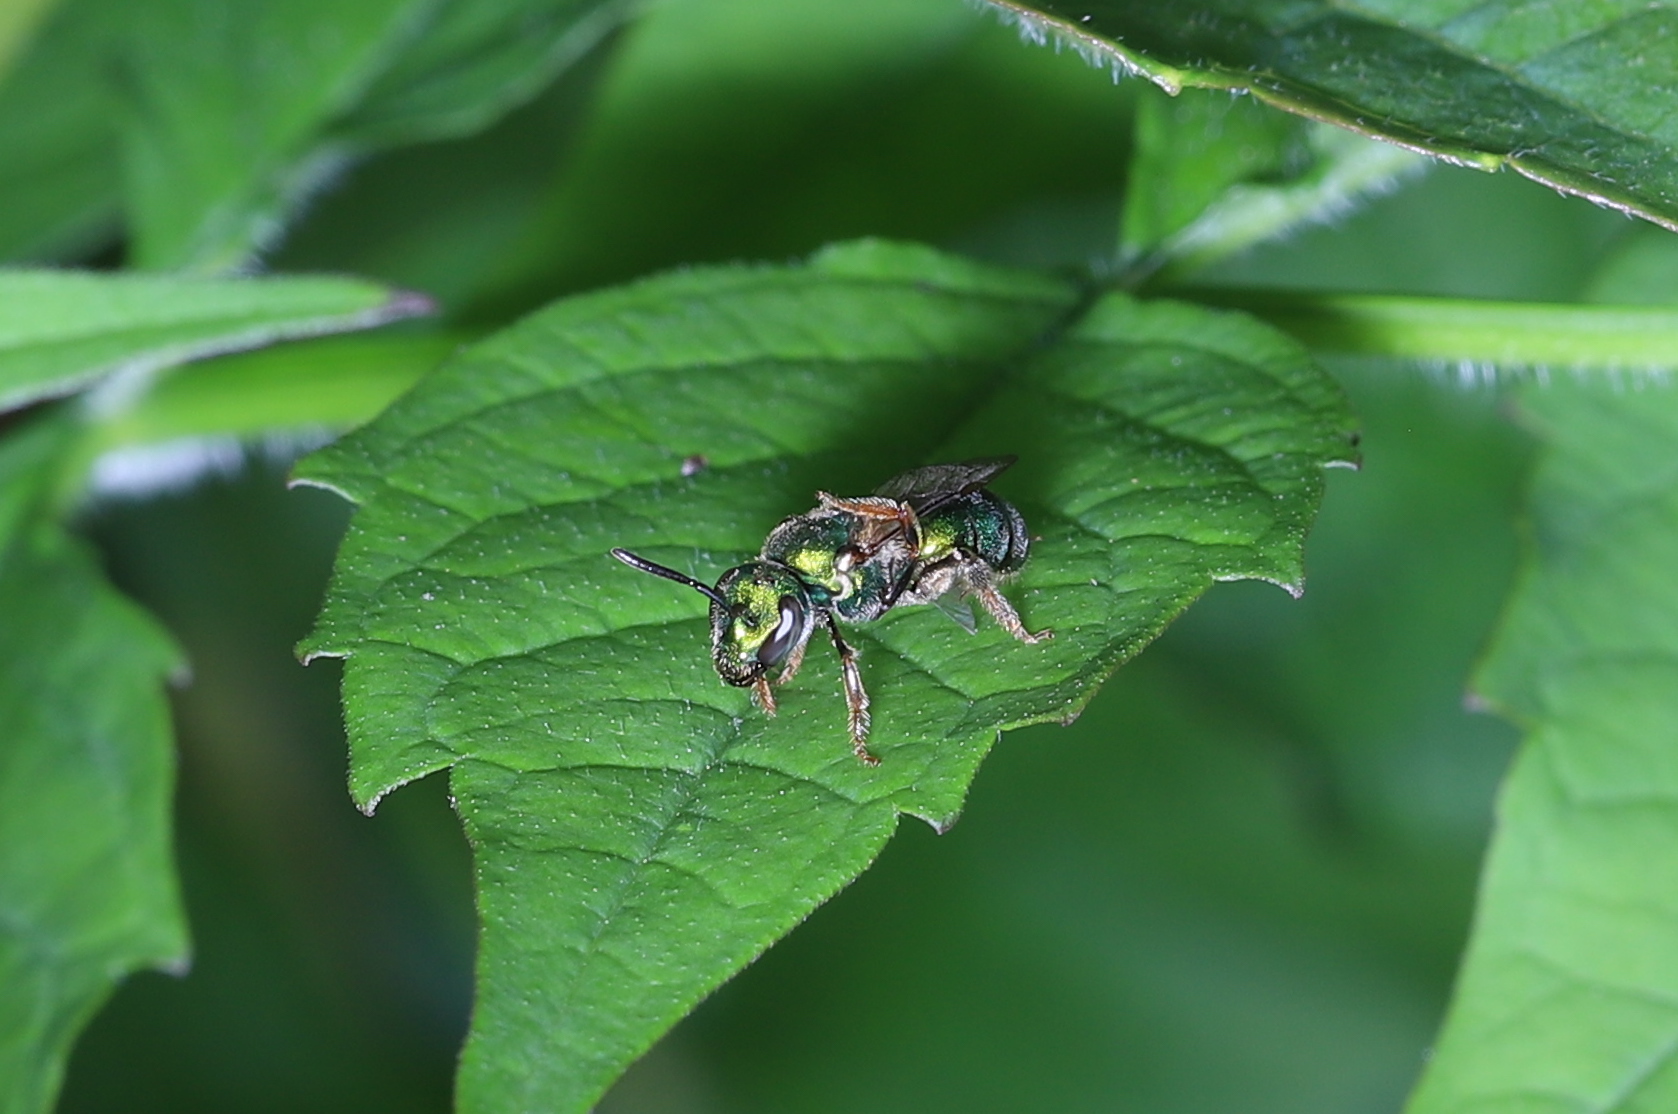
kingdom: Animalia
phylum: Arthropoda
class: Insecta
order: Hymenoptera
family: Halictidae
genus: Augochlorella
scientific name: Augochlorella aurata
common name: Golden sweat bee
